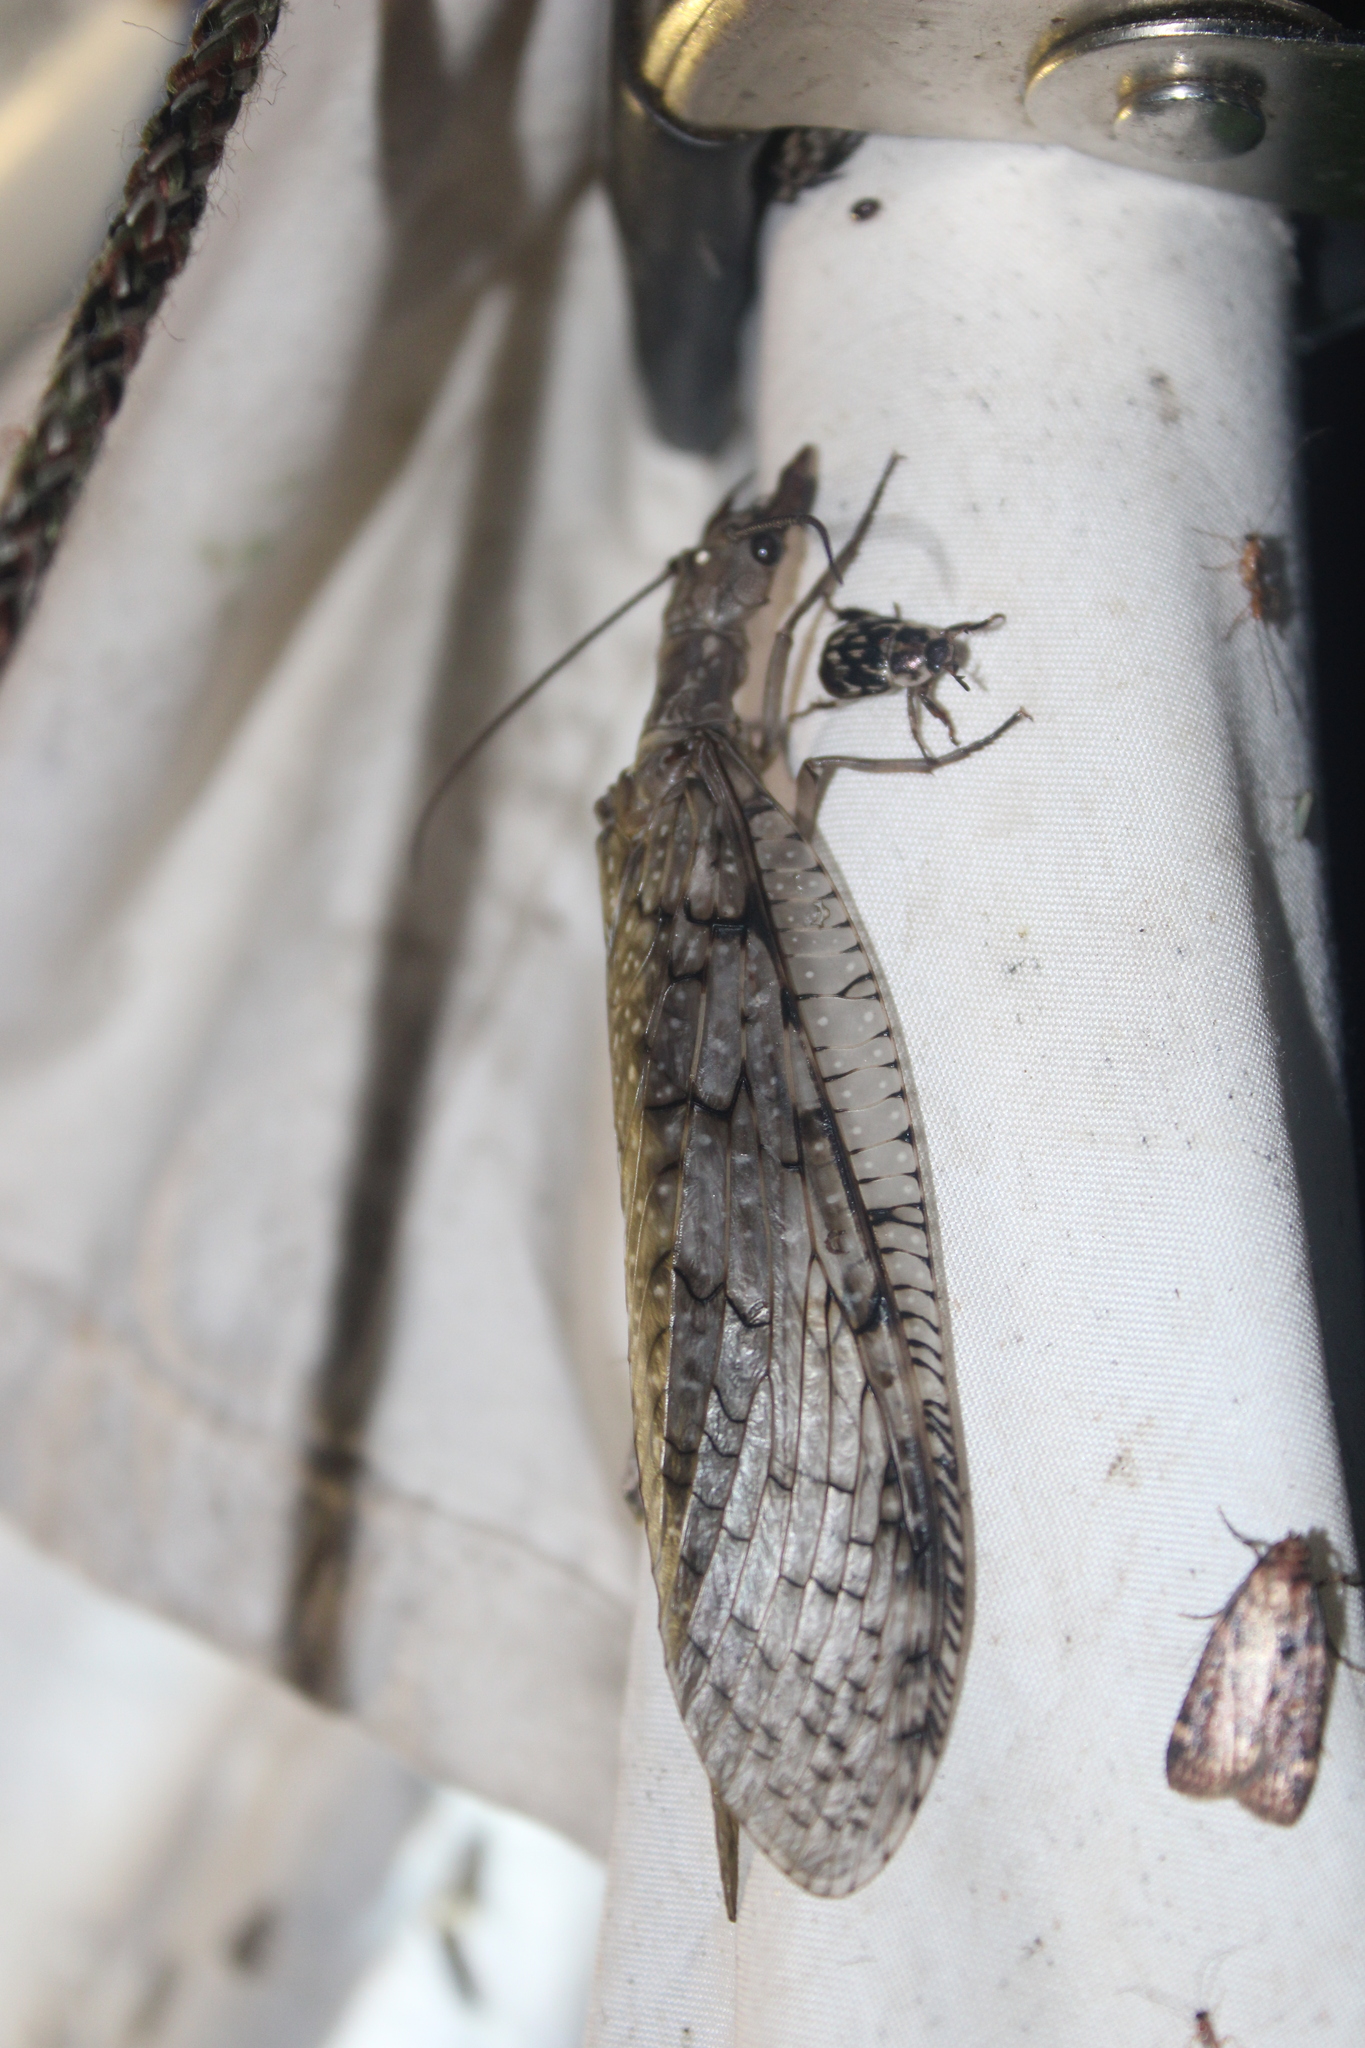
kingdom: Animalia
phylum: Arthropoda
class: Insecta
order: Megaloptera
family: Corydalidae
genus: Corydalus
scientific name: Corydalus cornutus
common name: Dobsonfly
